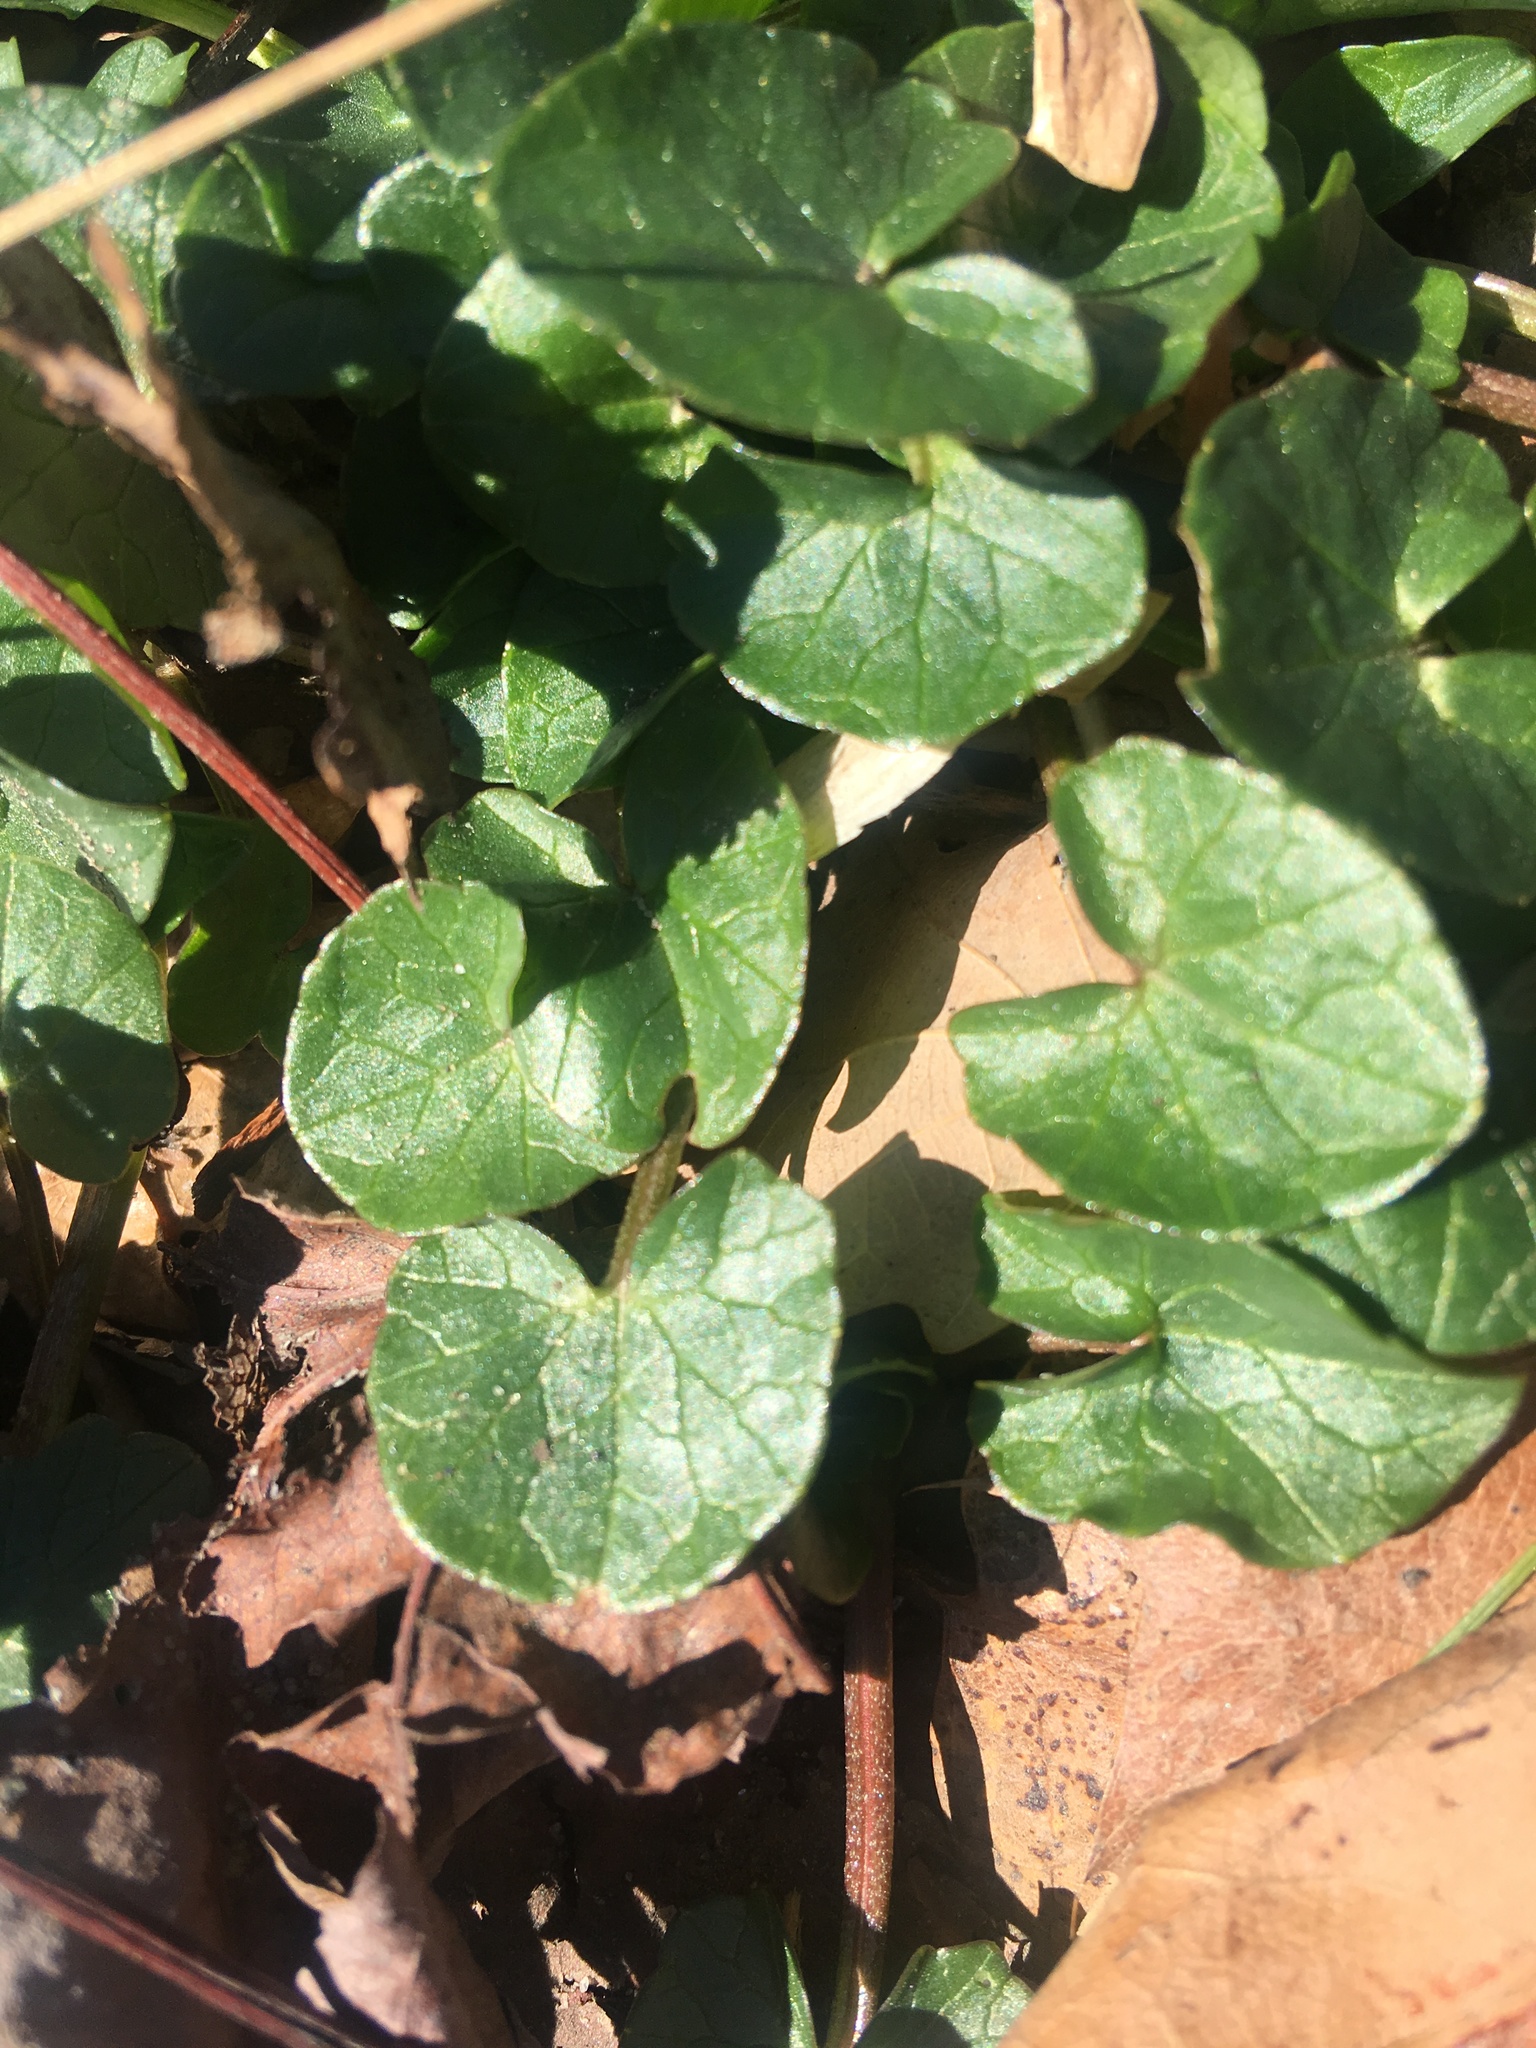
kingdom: Plantae
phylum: Tracheophyta
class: Magnoliopsida
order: Ranunculales
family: Ranunculaceae
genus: Ficaria
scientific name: Ficaria verna
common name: Lesser celandine
